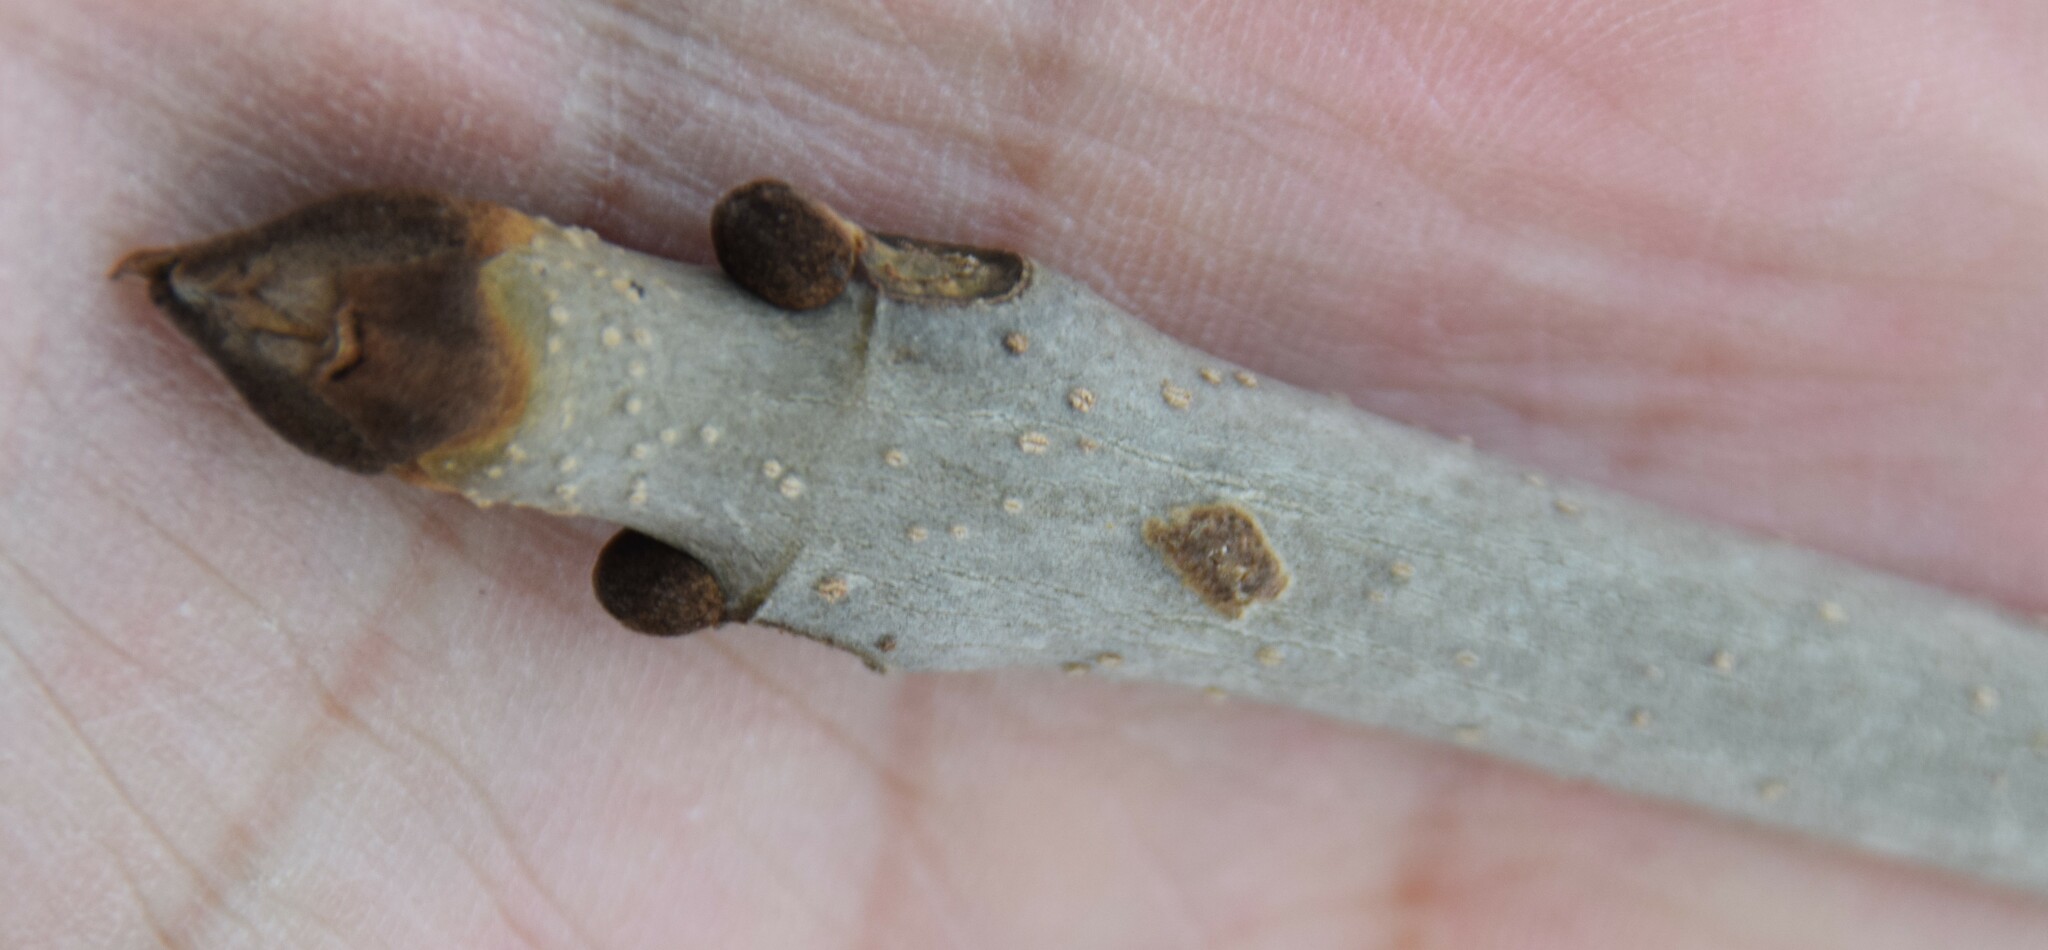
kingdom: Plantae
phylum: Tracheophyta
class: Magnoliopsida
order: Lamiales
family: Oleaceae
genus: Fraxinus
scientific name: Fraxinus nigra
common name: Black ash
